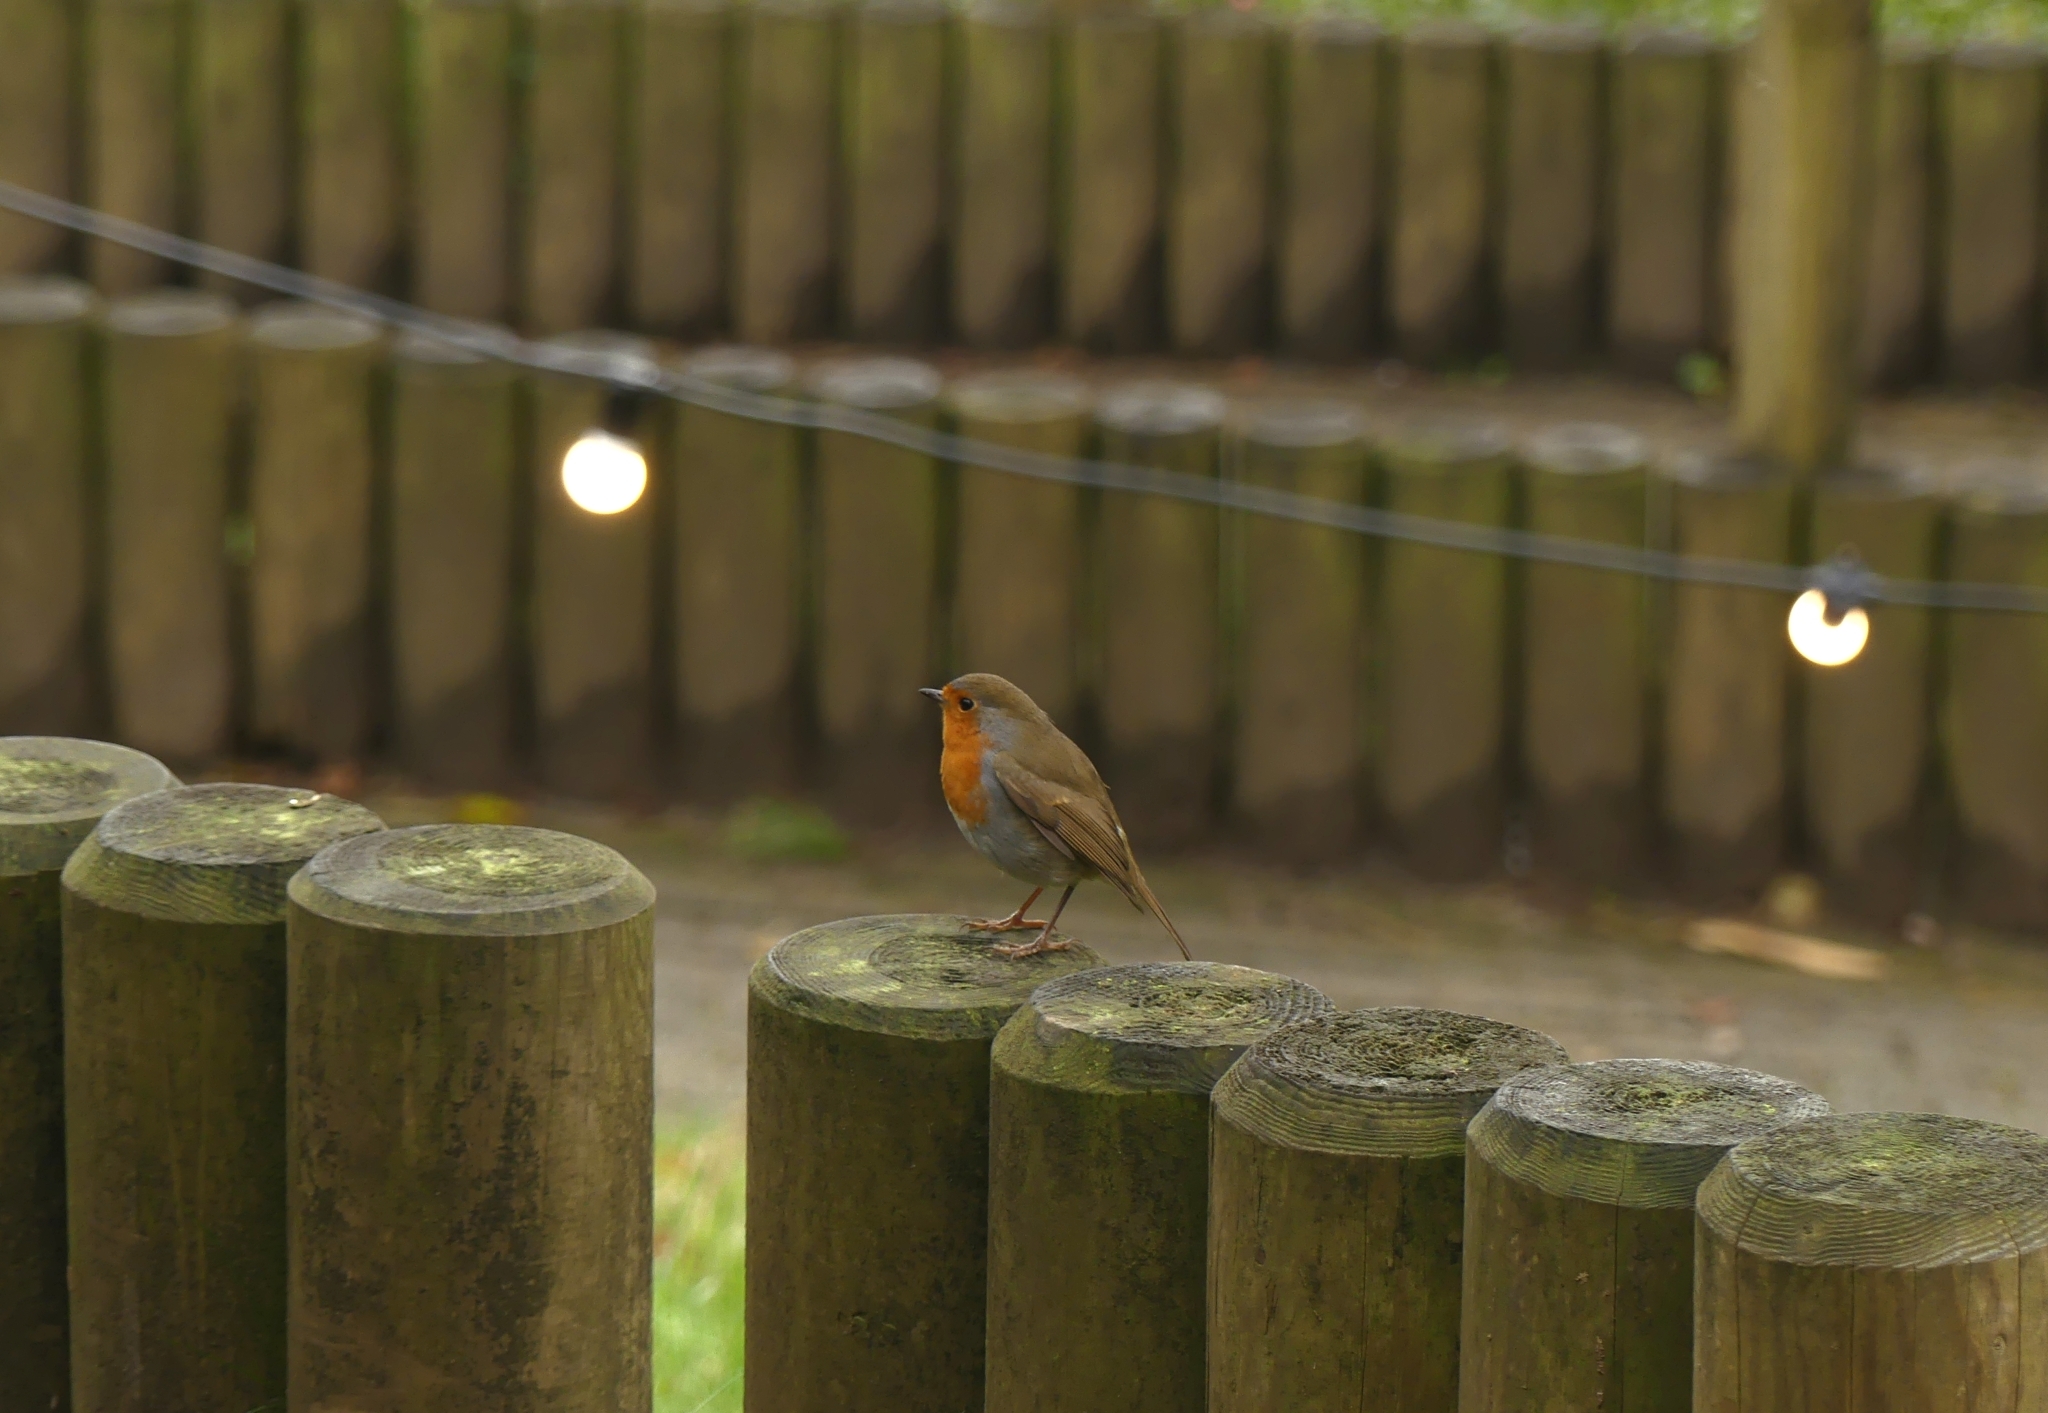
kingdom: Animalia
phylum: Chordata
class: Aves
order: Passeriformes
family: Muscicapidae
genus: Erithacus
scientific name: Erithacus rubecula
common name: European robin
